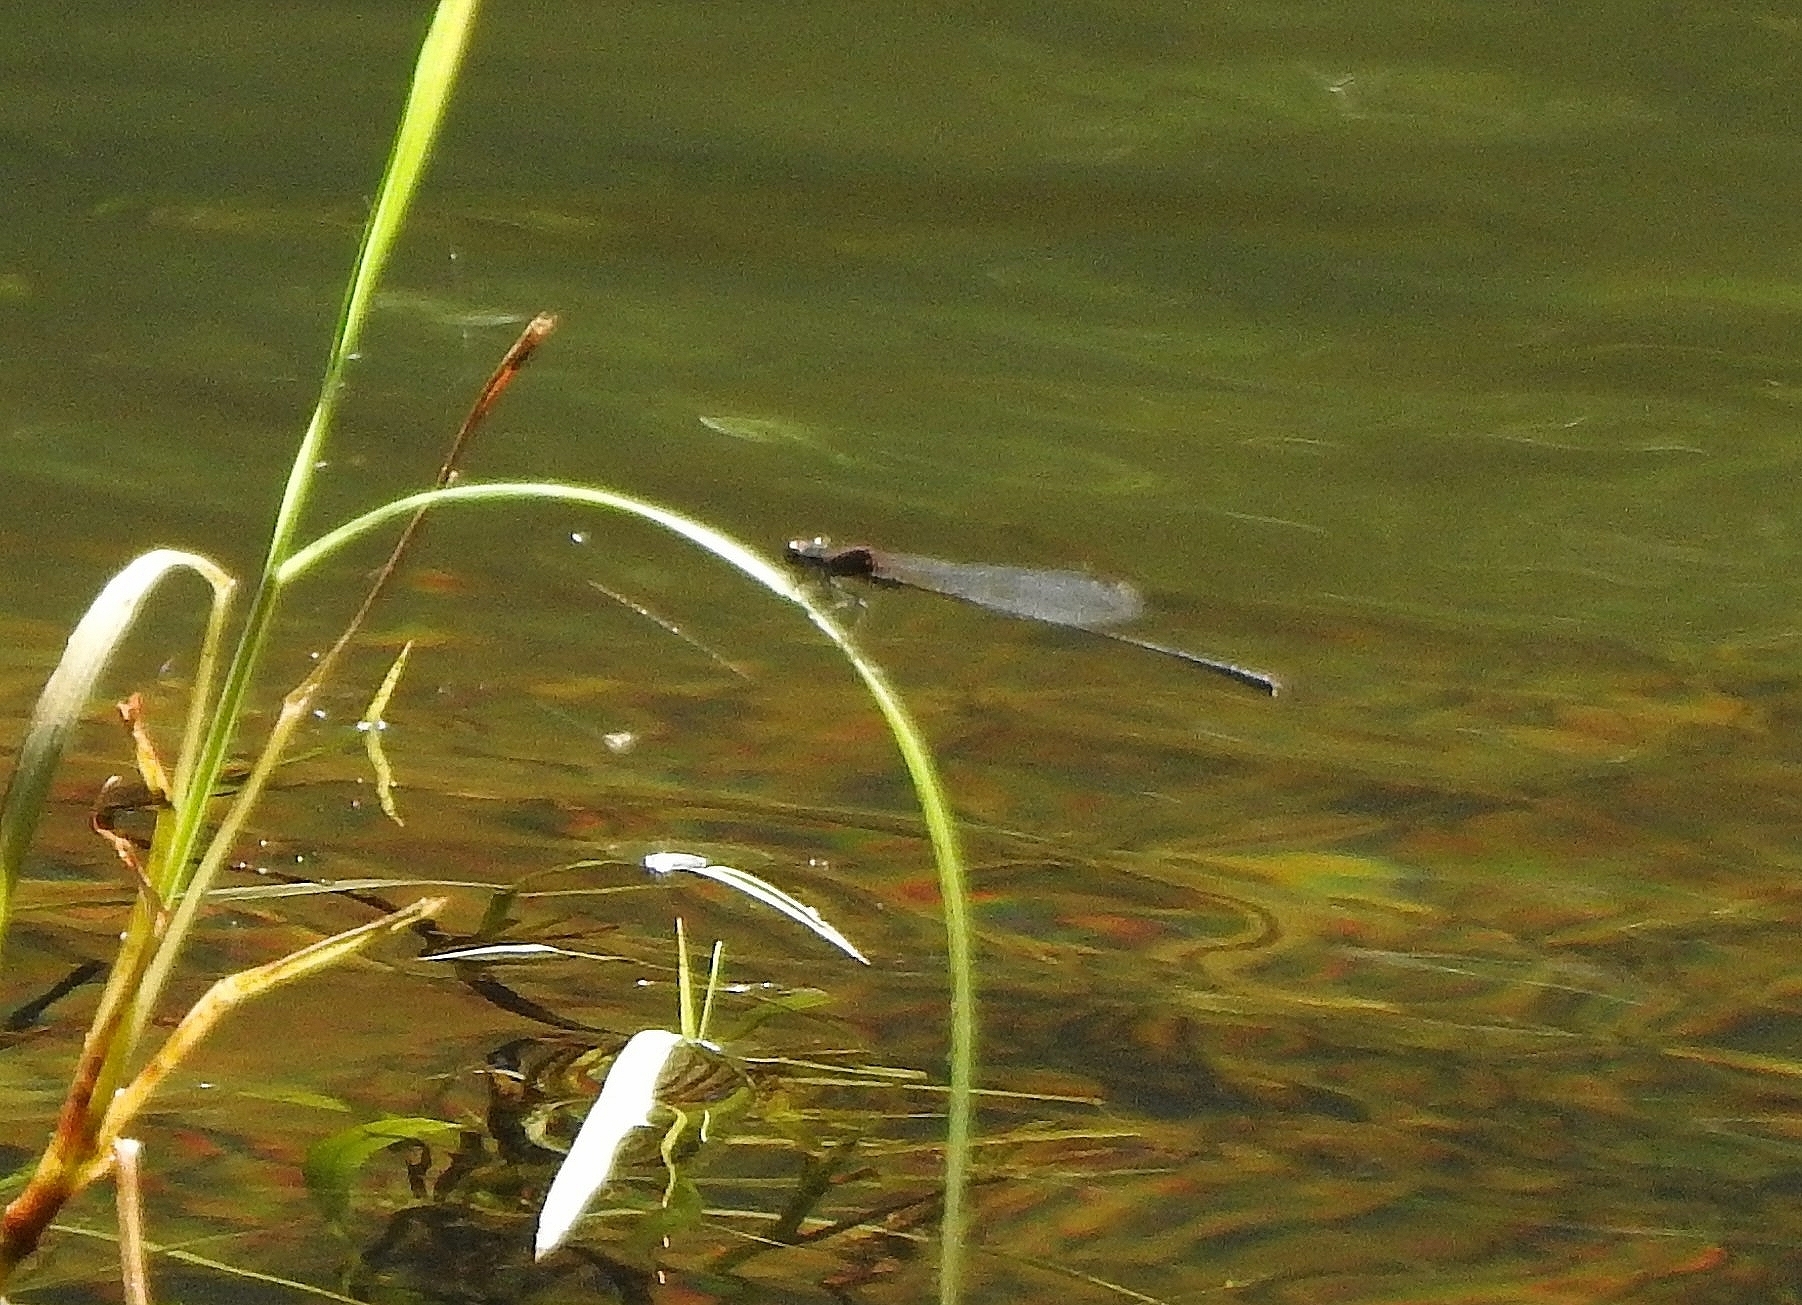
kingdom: Animalia
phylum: Arthropoda
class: Insecta
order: Odonata
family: Platycnemididae
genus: Prodasineura
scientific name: Prodasineura verticalis
